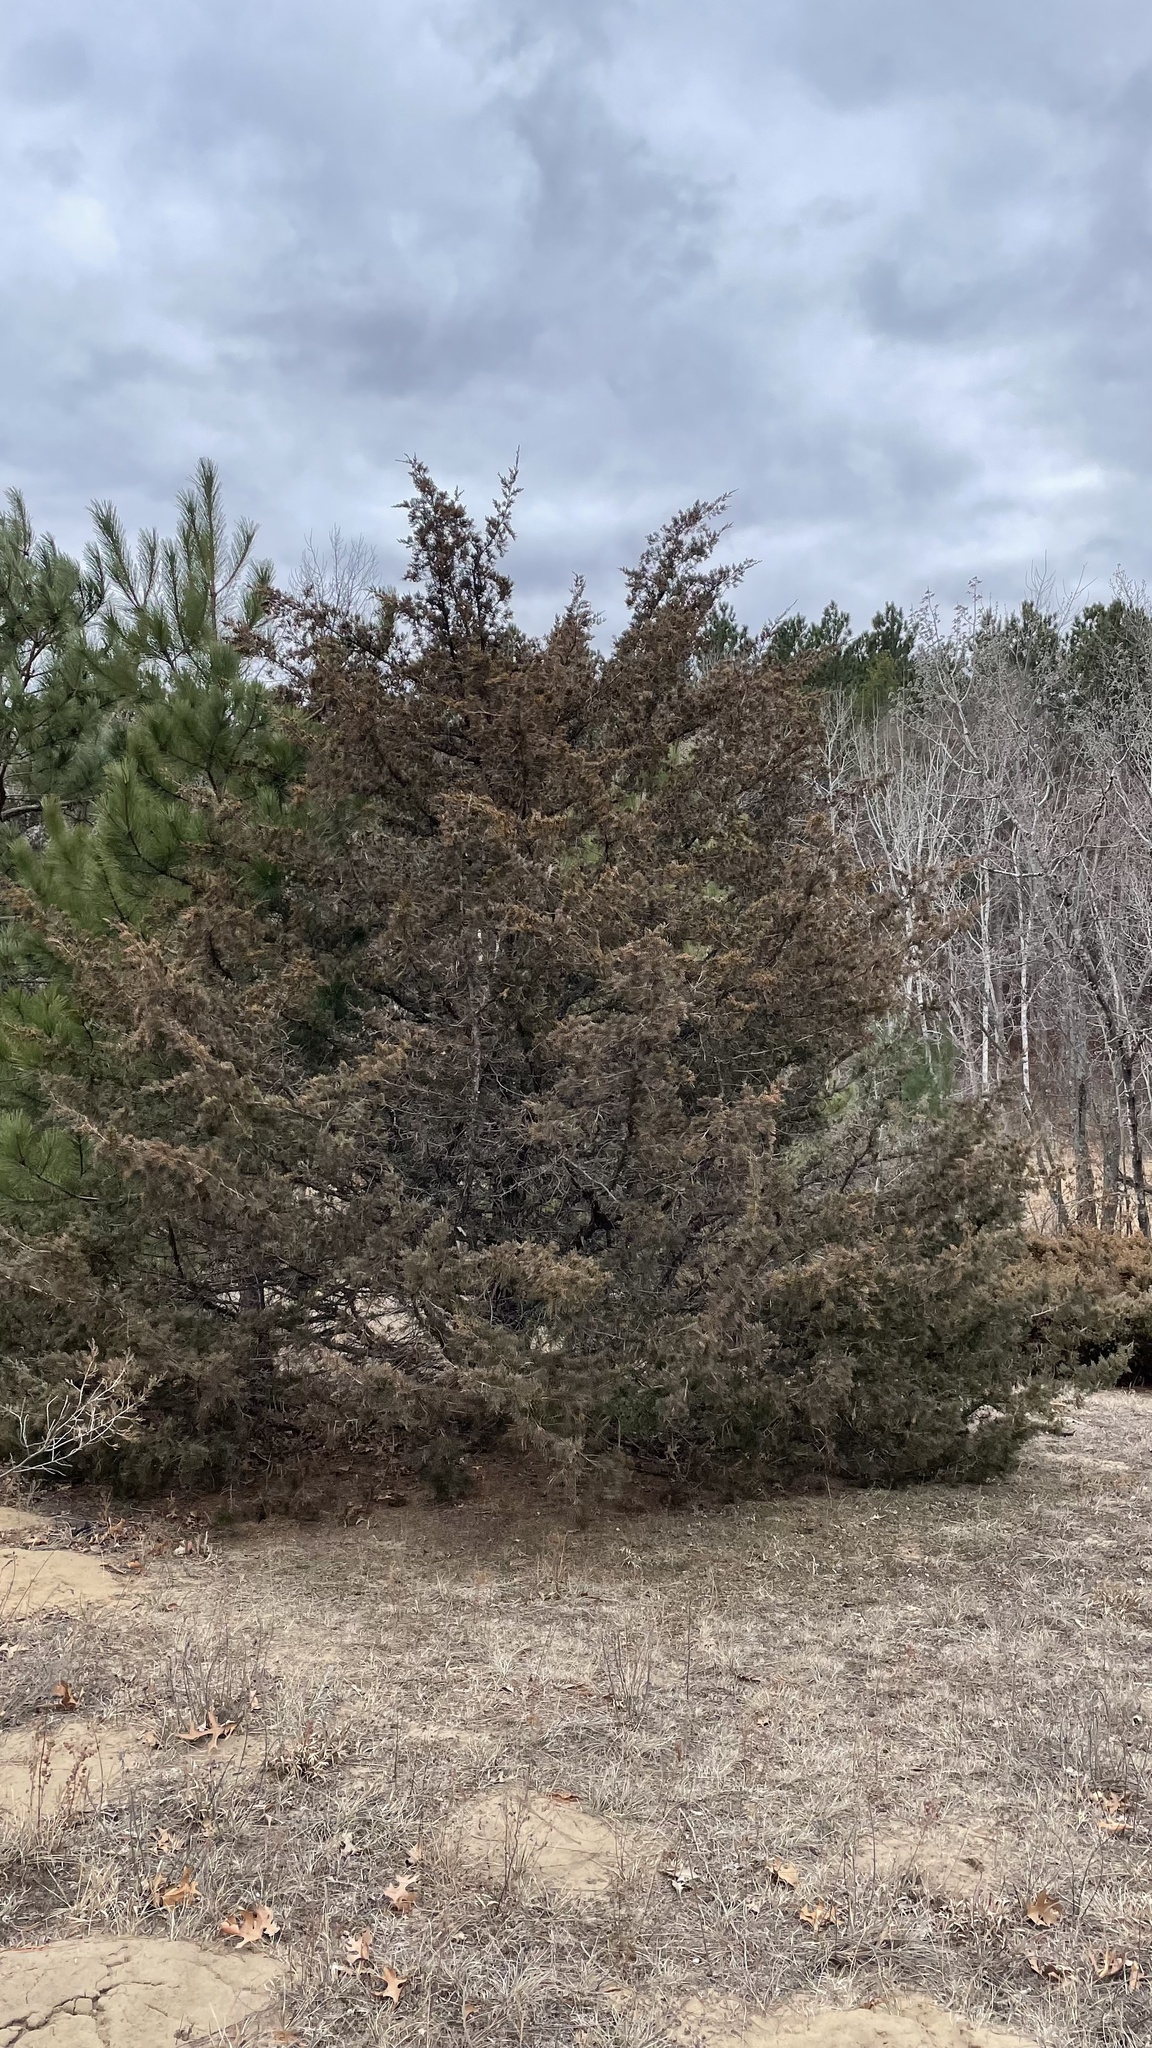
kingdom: Plantae
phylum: Tracheophyta
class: Pinopsida
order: Pinales
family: Cupressaceae
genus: Juniperus
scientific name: Juniperus virginiana
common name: Red juniper
